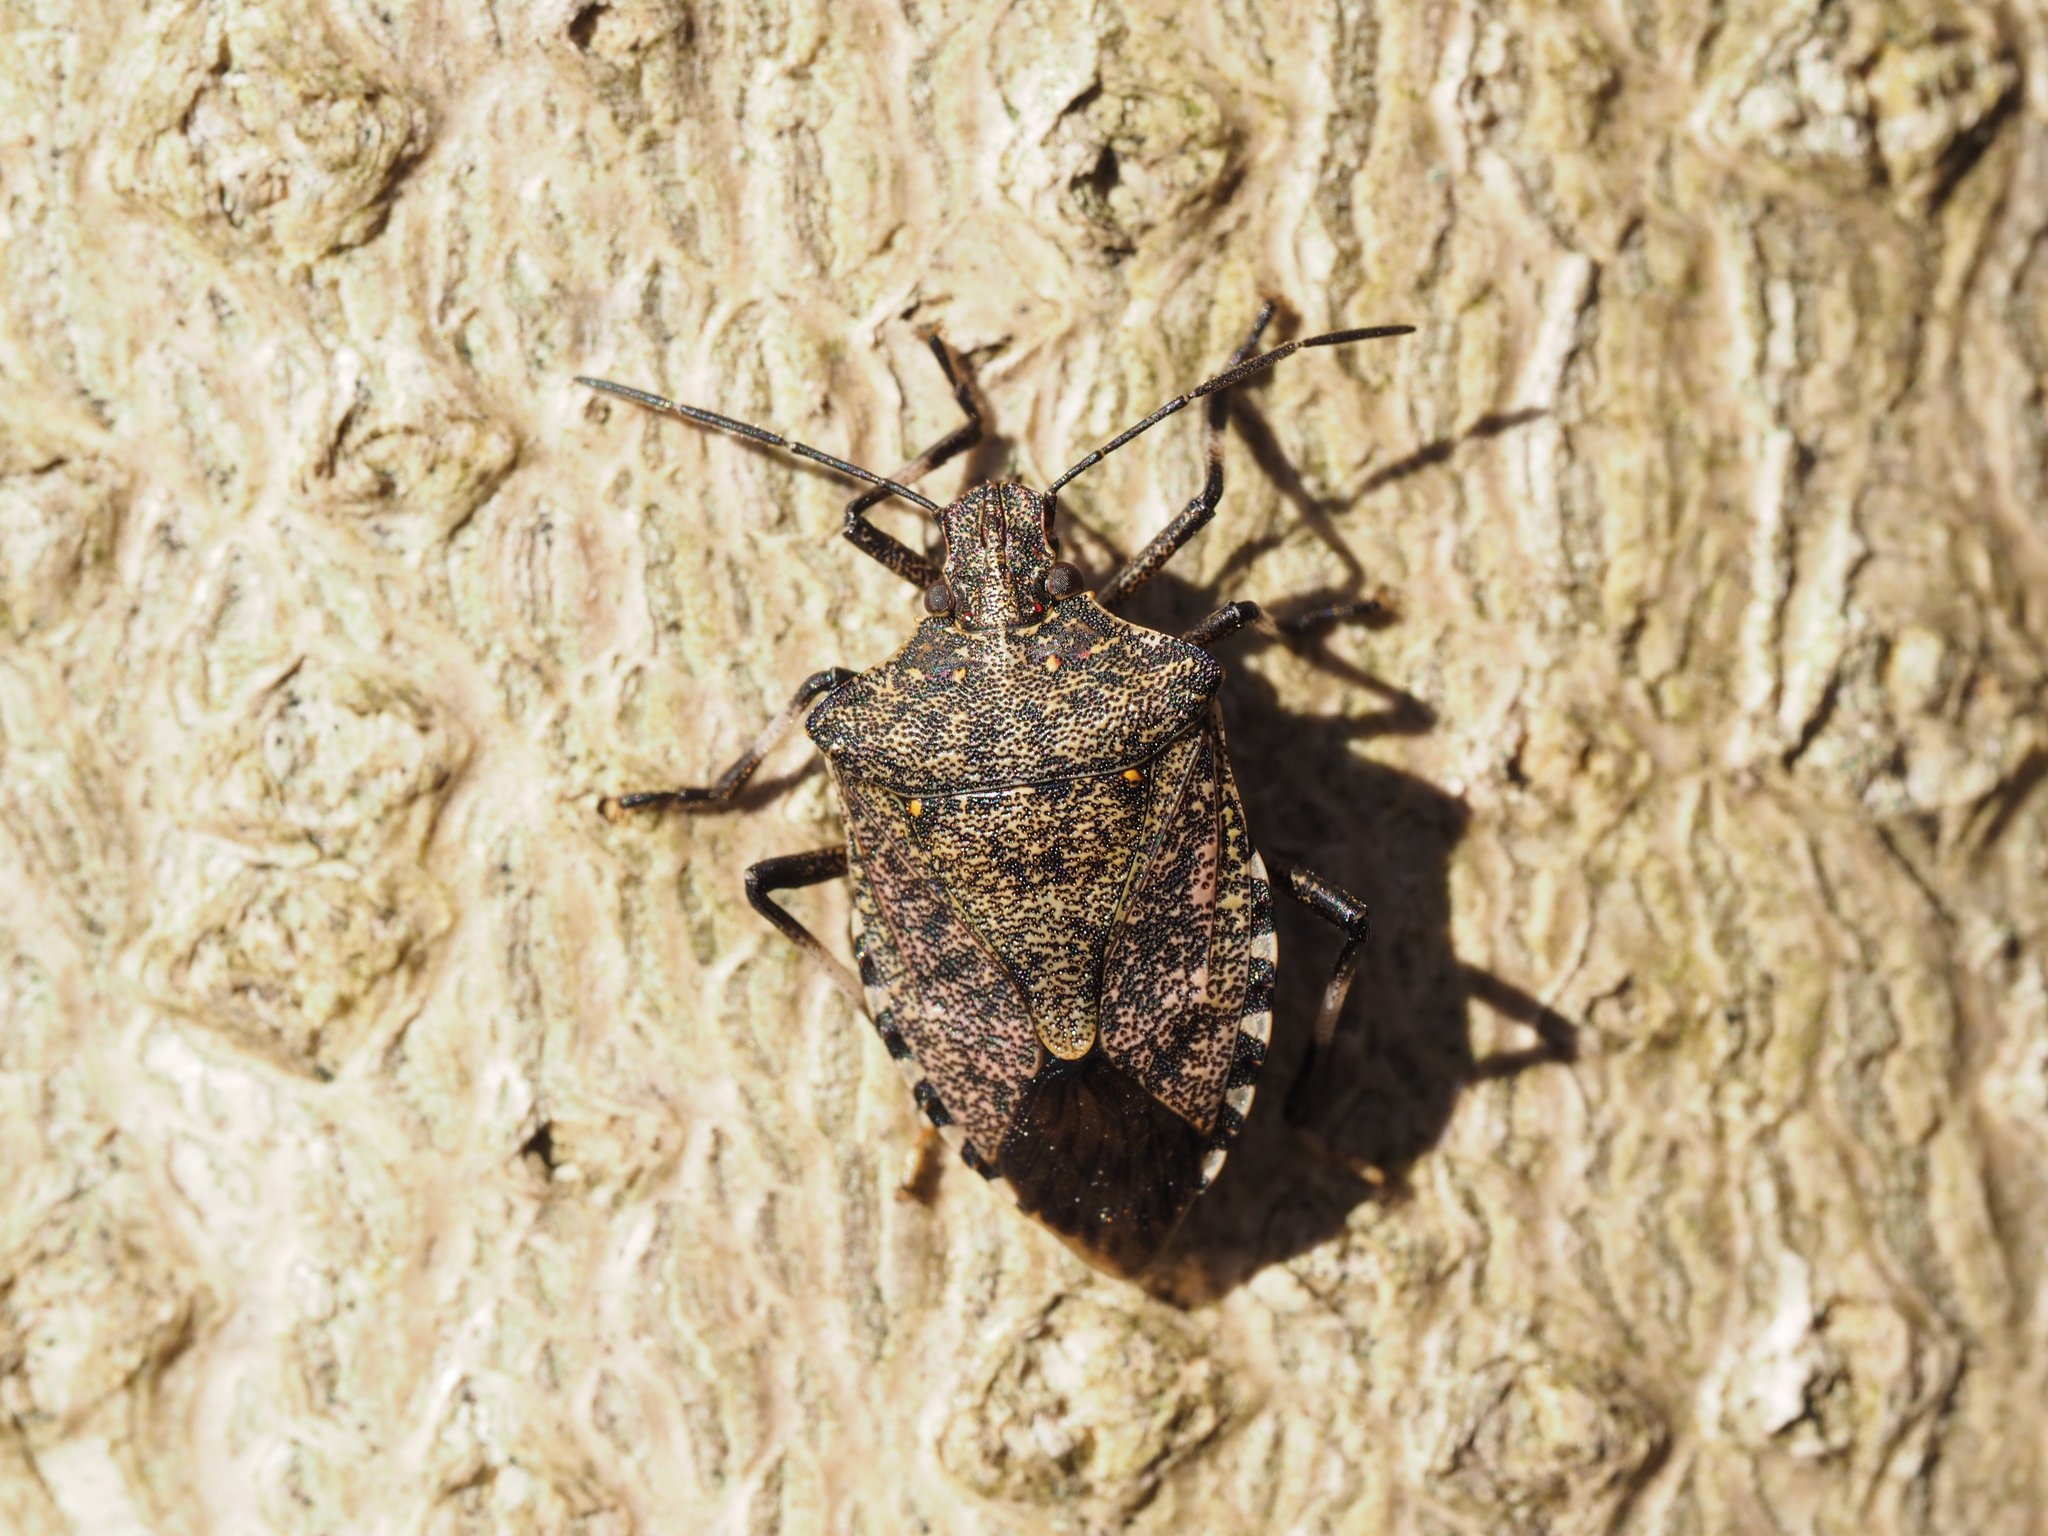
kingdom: Animalia
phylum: Arthropoda
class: Insecta
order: Hemiptera
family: Pentatomidae
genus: Halyomorpha
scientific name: Halyomorpha halys
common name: Brown marmorated stink bug
